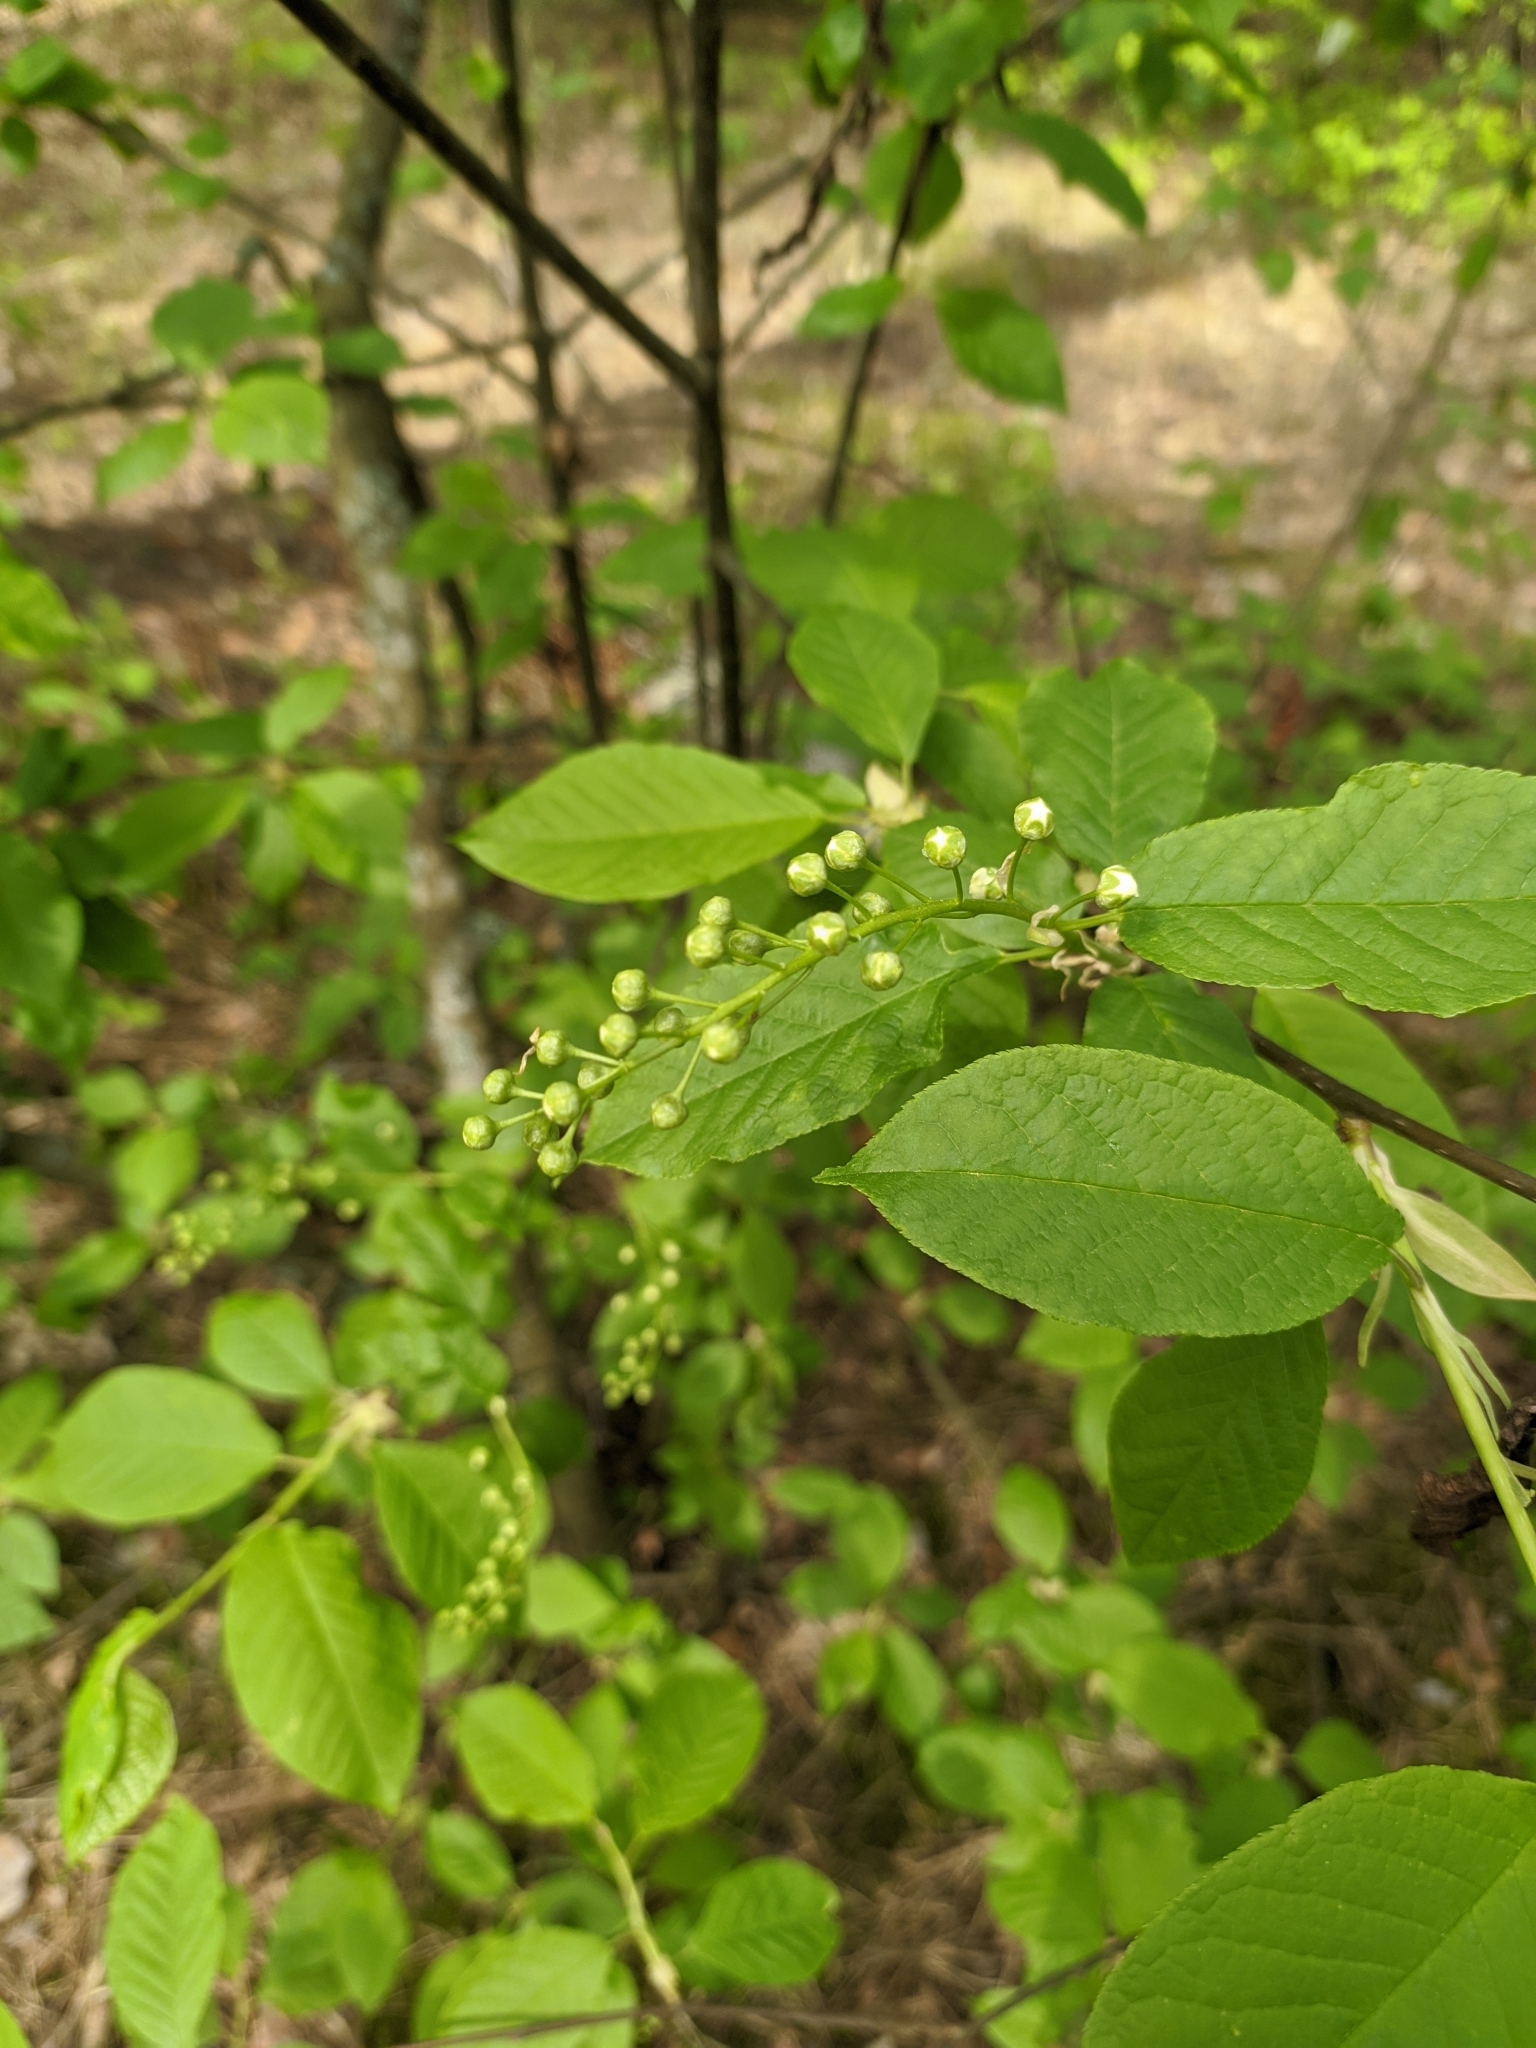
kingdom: Plantae
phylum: Tracheophyta
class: Magnoliopsida
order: Rosales
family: Rosaceae
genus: Prunus
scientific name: Prunus padus
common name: Bird cherry
